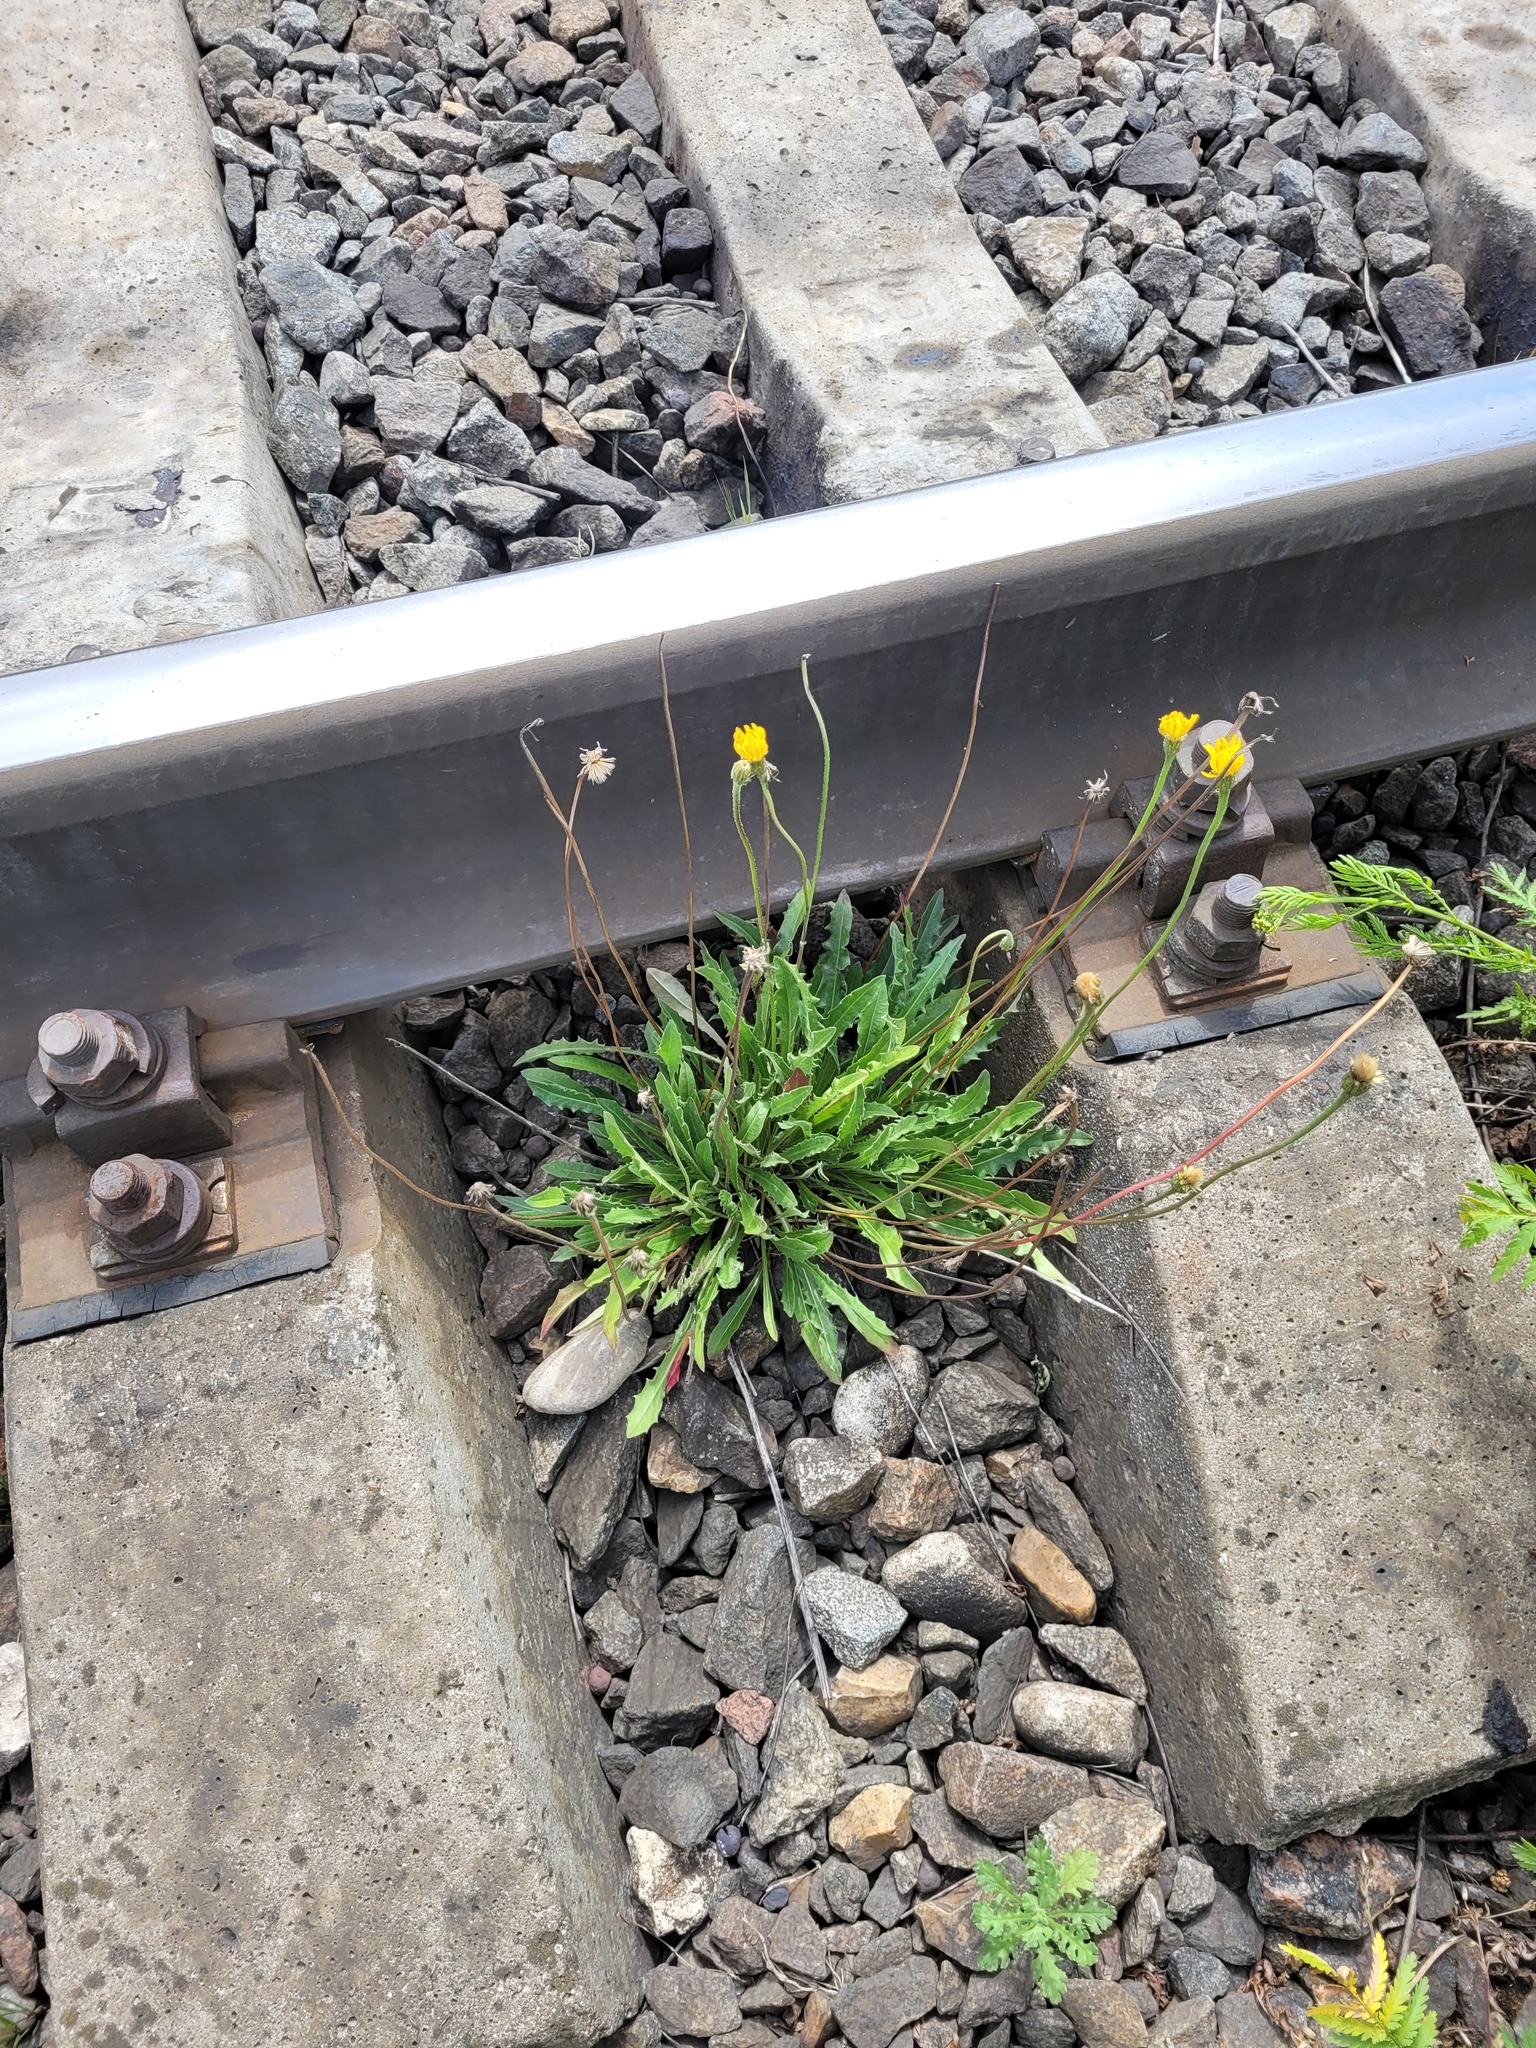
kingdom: Plantae
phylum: Tracheophyta
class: Magnoliopsida
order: Asterales
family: Asteraceae
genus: Leontodon
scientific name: Leontodon hispidus
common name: Rough hawkbit
